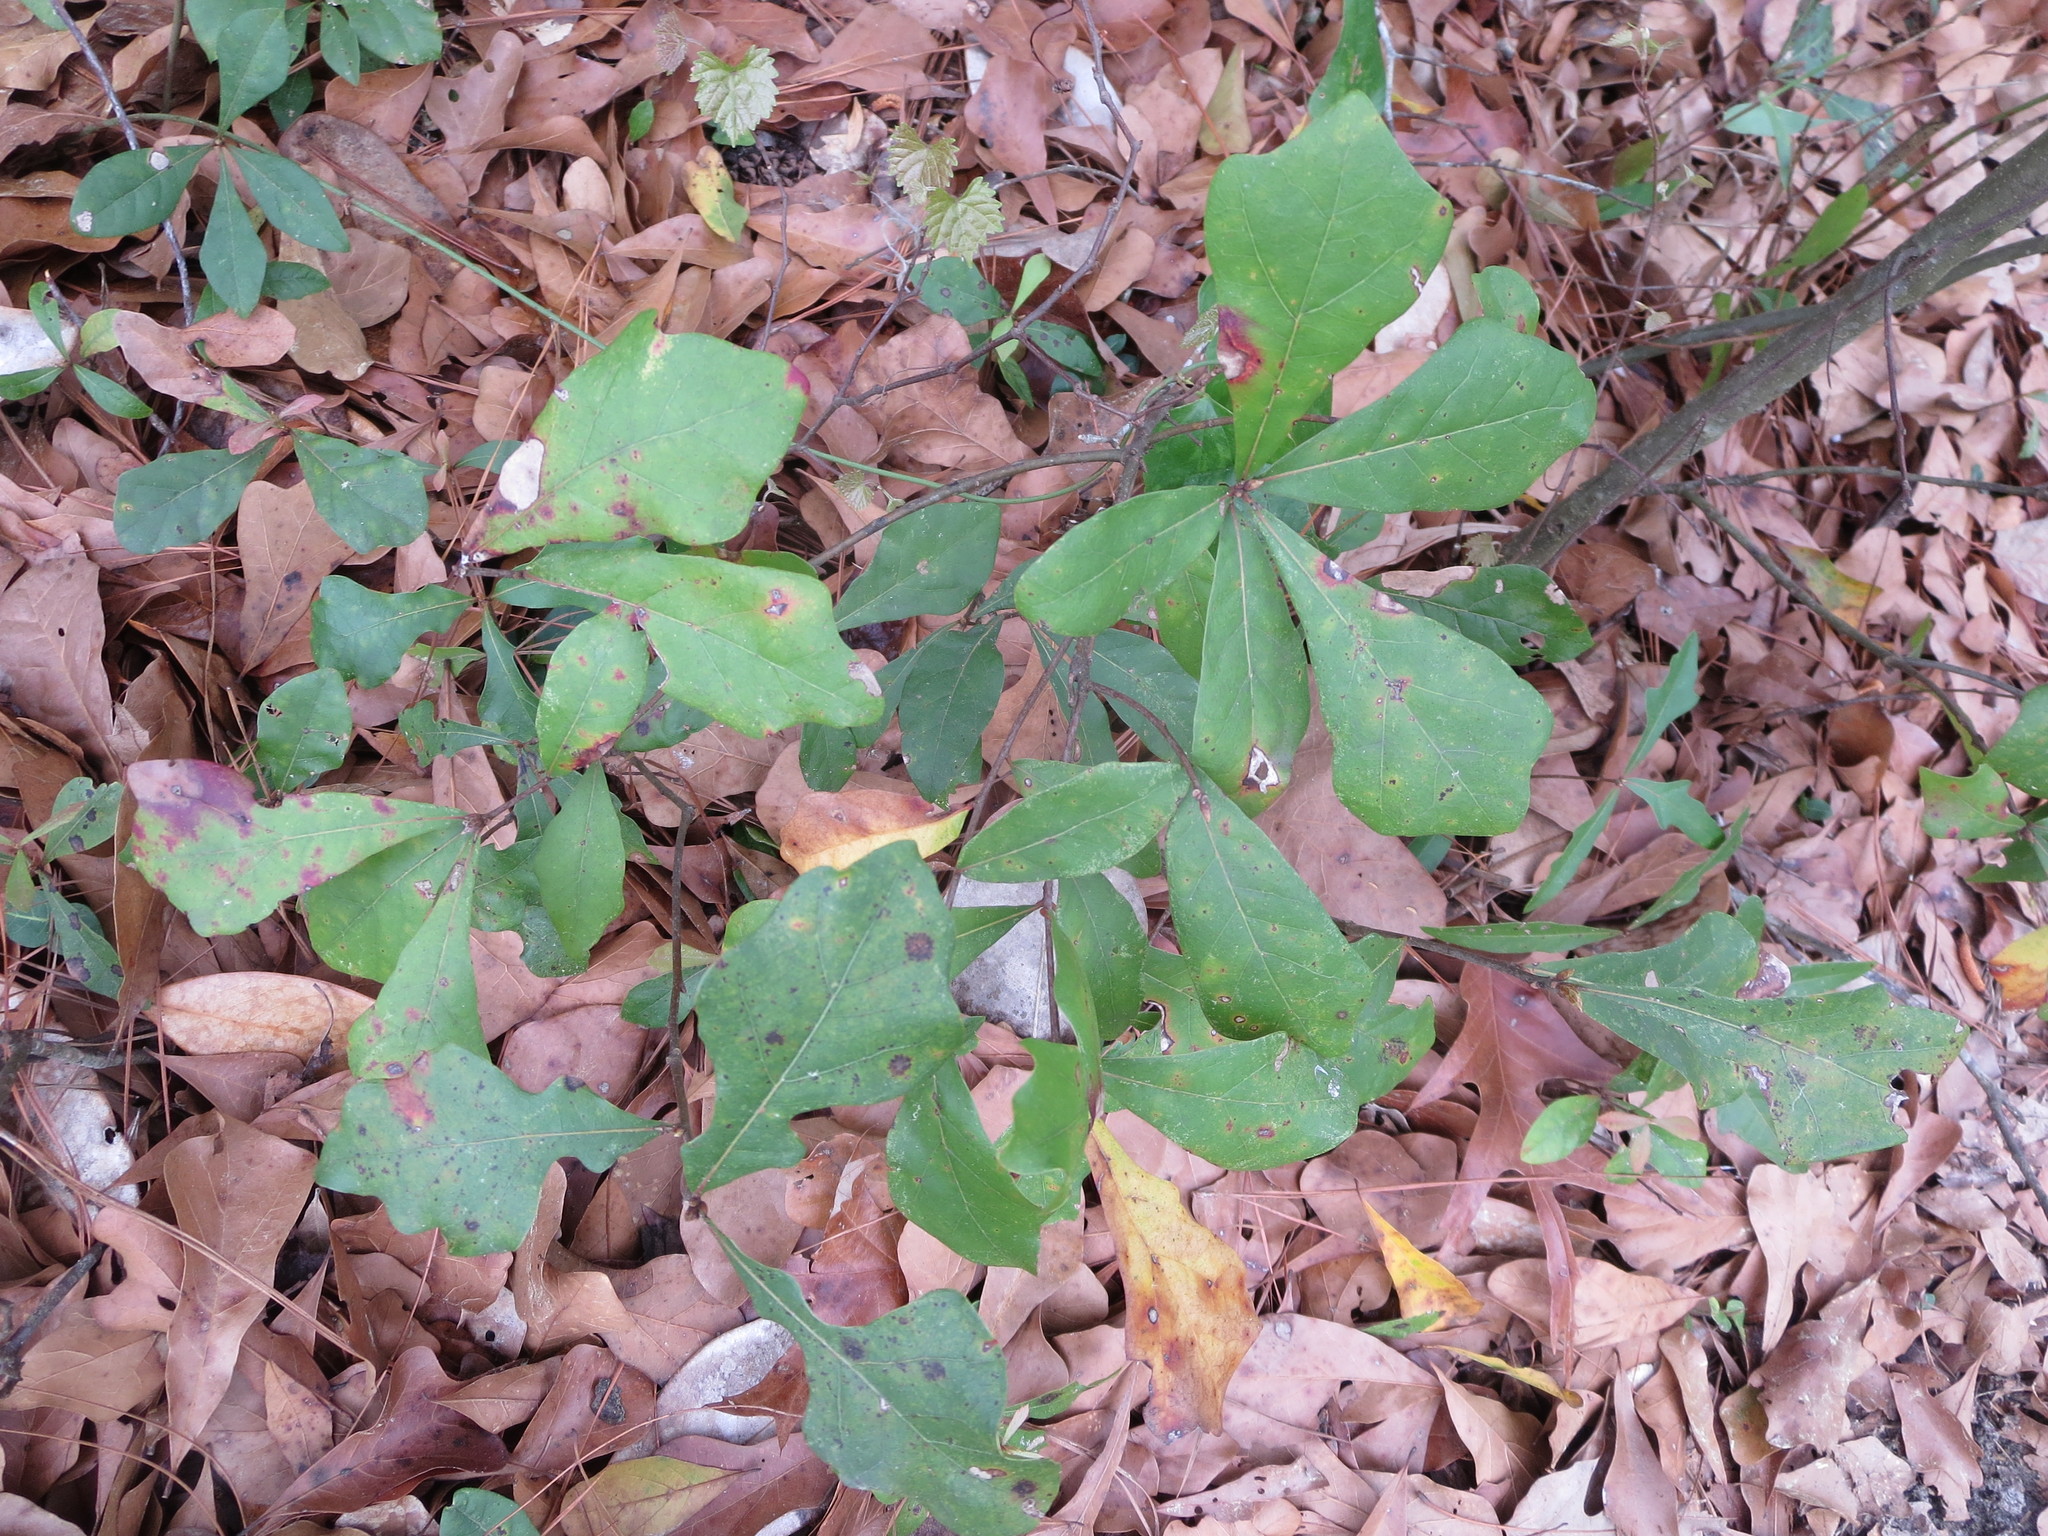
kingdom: Plantae
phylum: Tracheophyta
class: Magnoliopsida
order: Fagales
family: Fagaceae
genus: Quercus
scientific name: Quercus nigra
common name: Water oak
